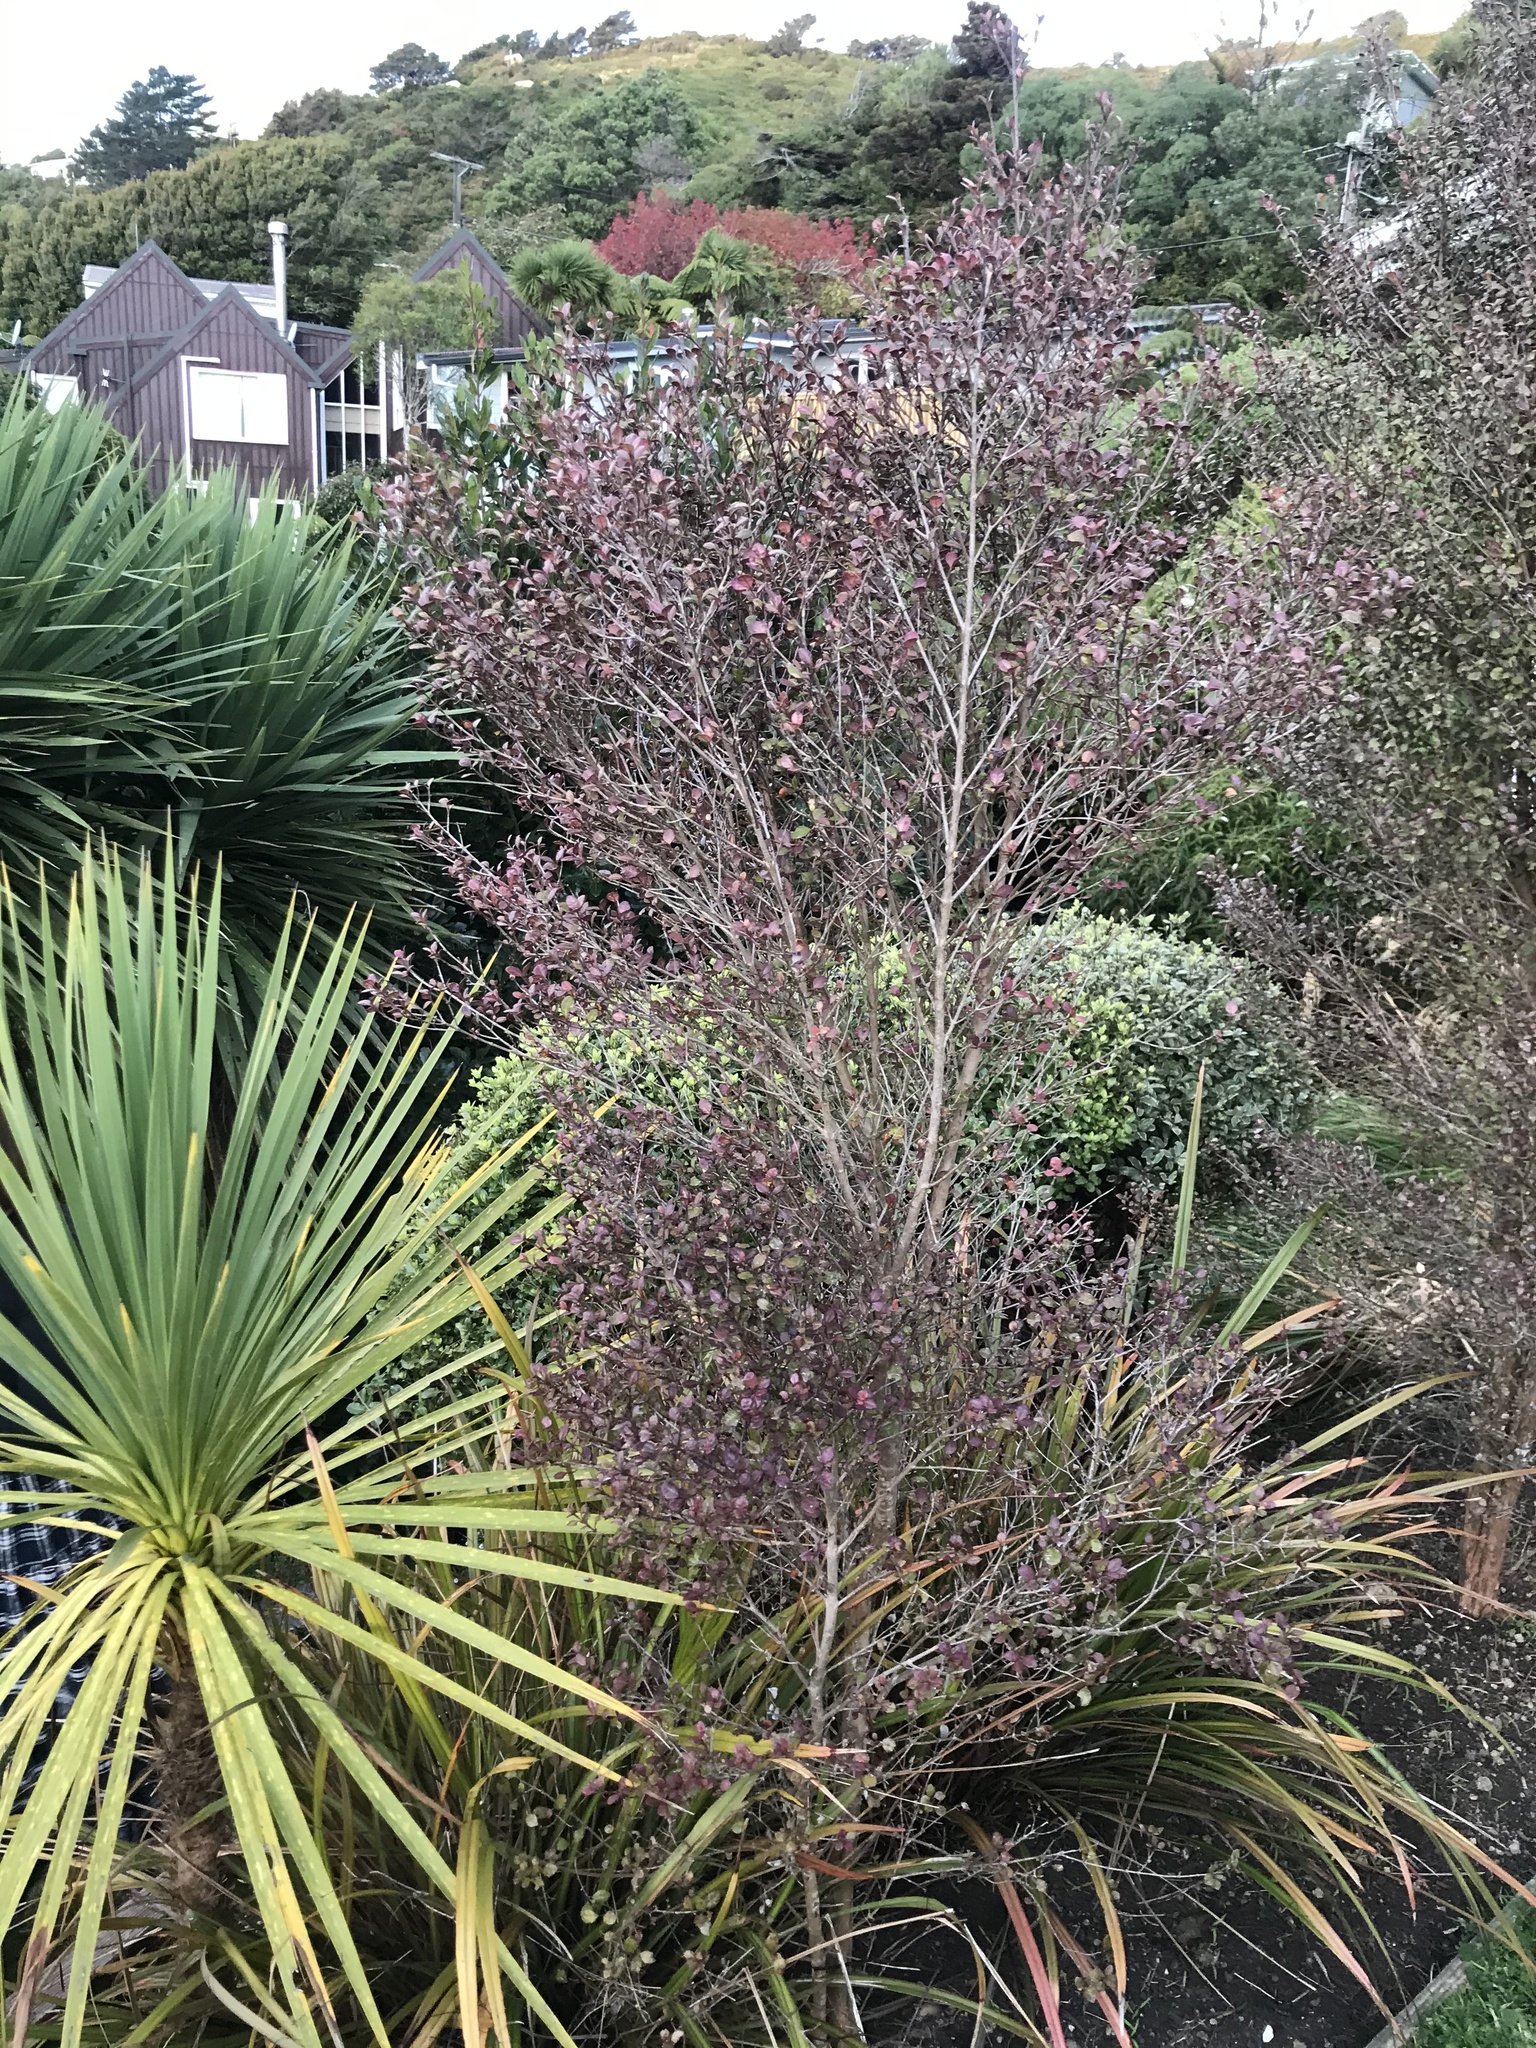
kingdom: Fungi
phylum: Basidiomycota
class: Pucciniomycetes
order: Pucciniales
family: Sphaerophragmiaceae
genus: Austropuccinia
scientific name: Austropuccinia psidii
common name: Myrtle rust
